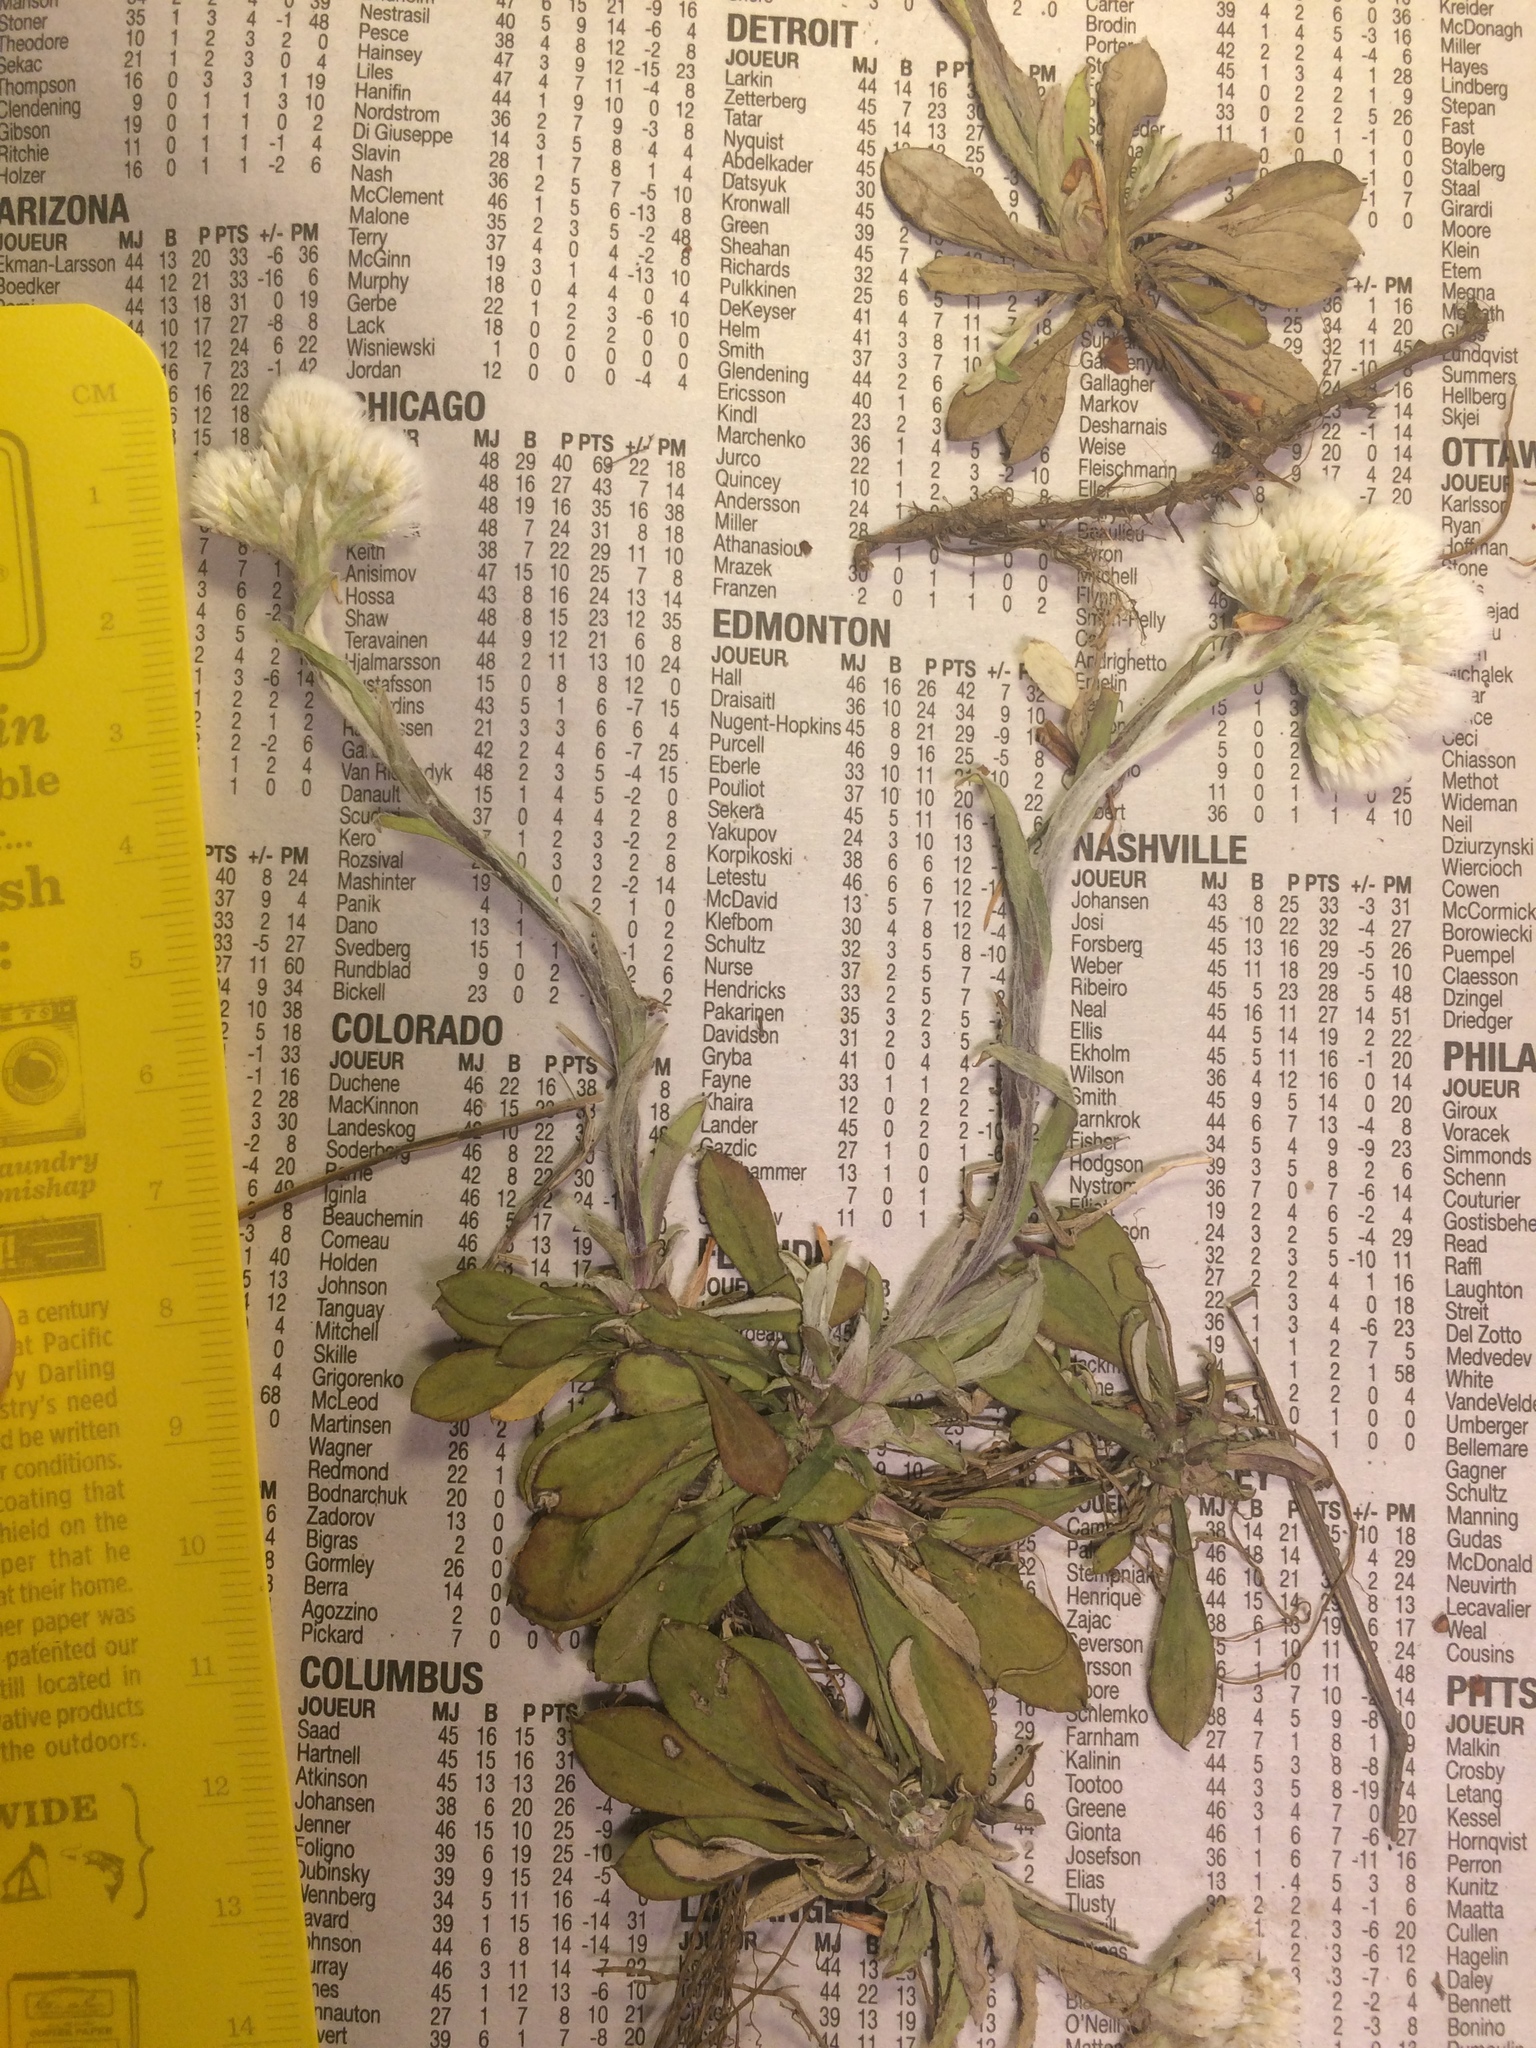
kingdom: Plantae
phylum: Tracheophyta
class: Magnoliopsida
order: Asterales
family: Asteraceae
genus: Antennaria
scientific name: Antennaria howellii
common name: Howell's pussytoes
